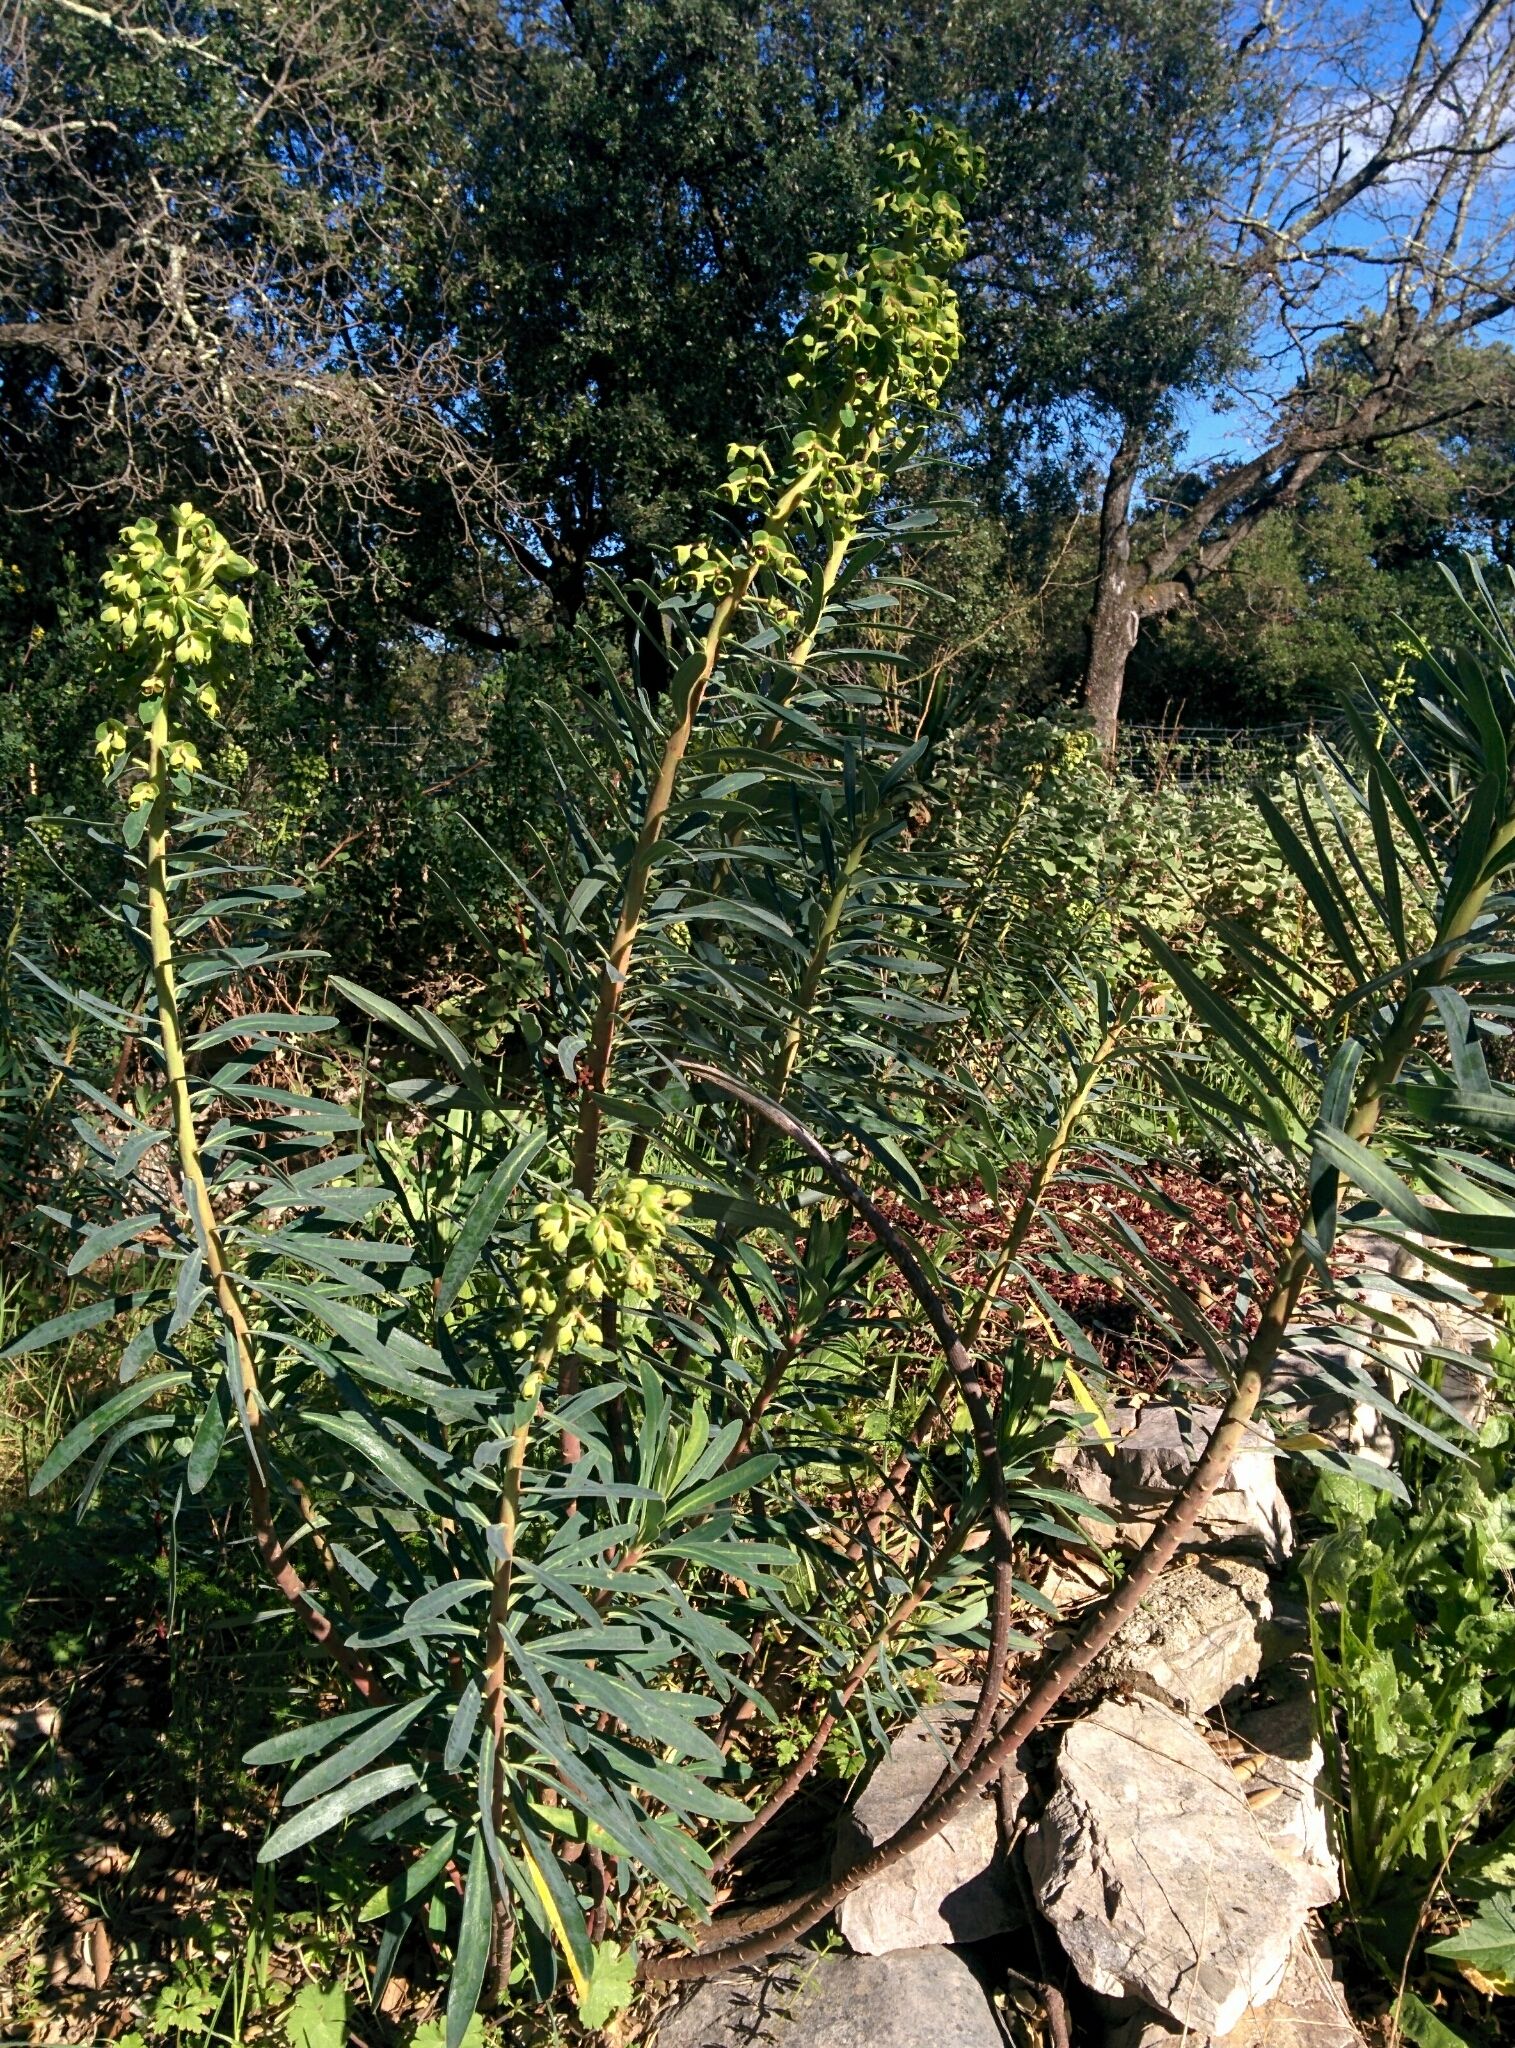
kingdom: Plantae
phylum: Tracheophyta
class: Magnoliopsida
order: Malpighiales
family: Euphorbiaceae
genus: Euphorbia
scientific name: Euphorbia characias
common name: Mediterranean spurge
